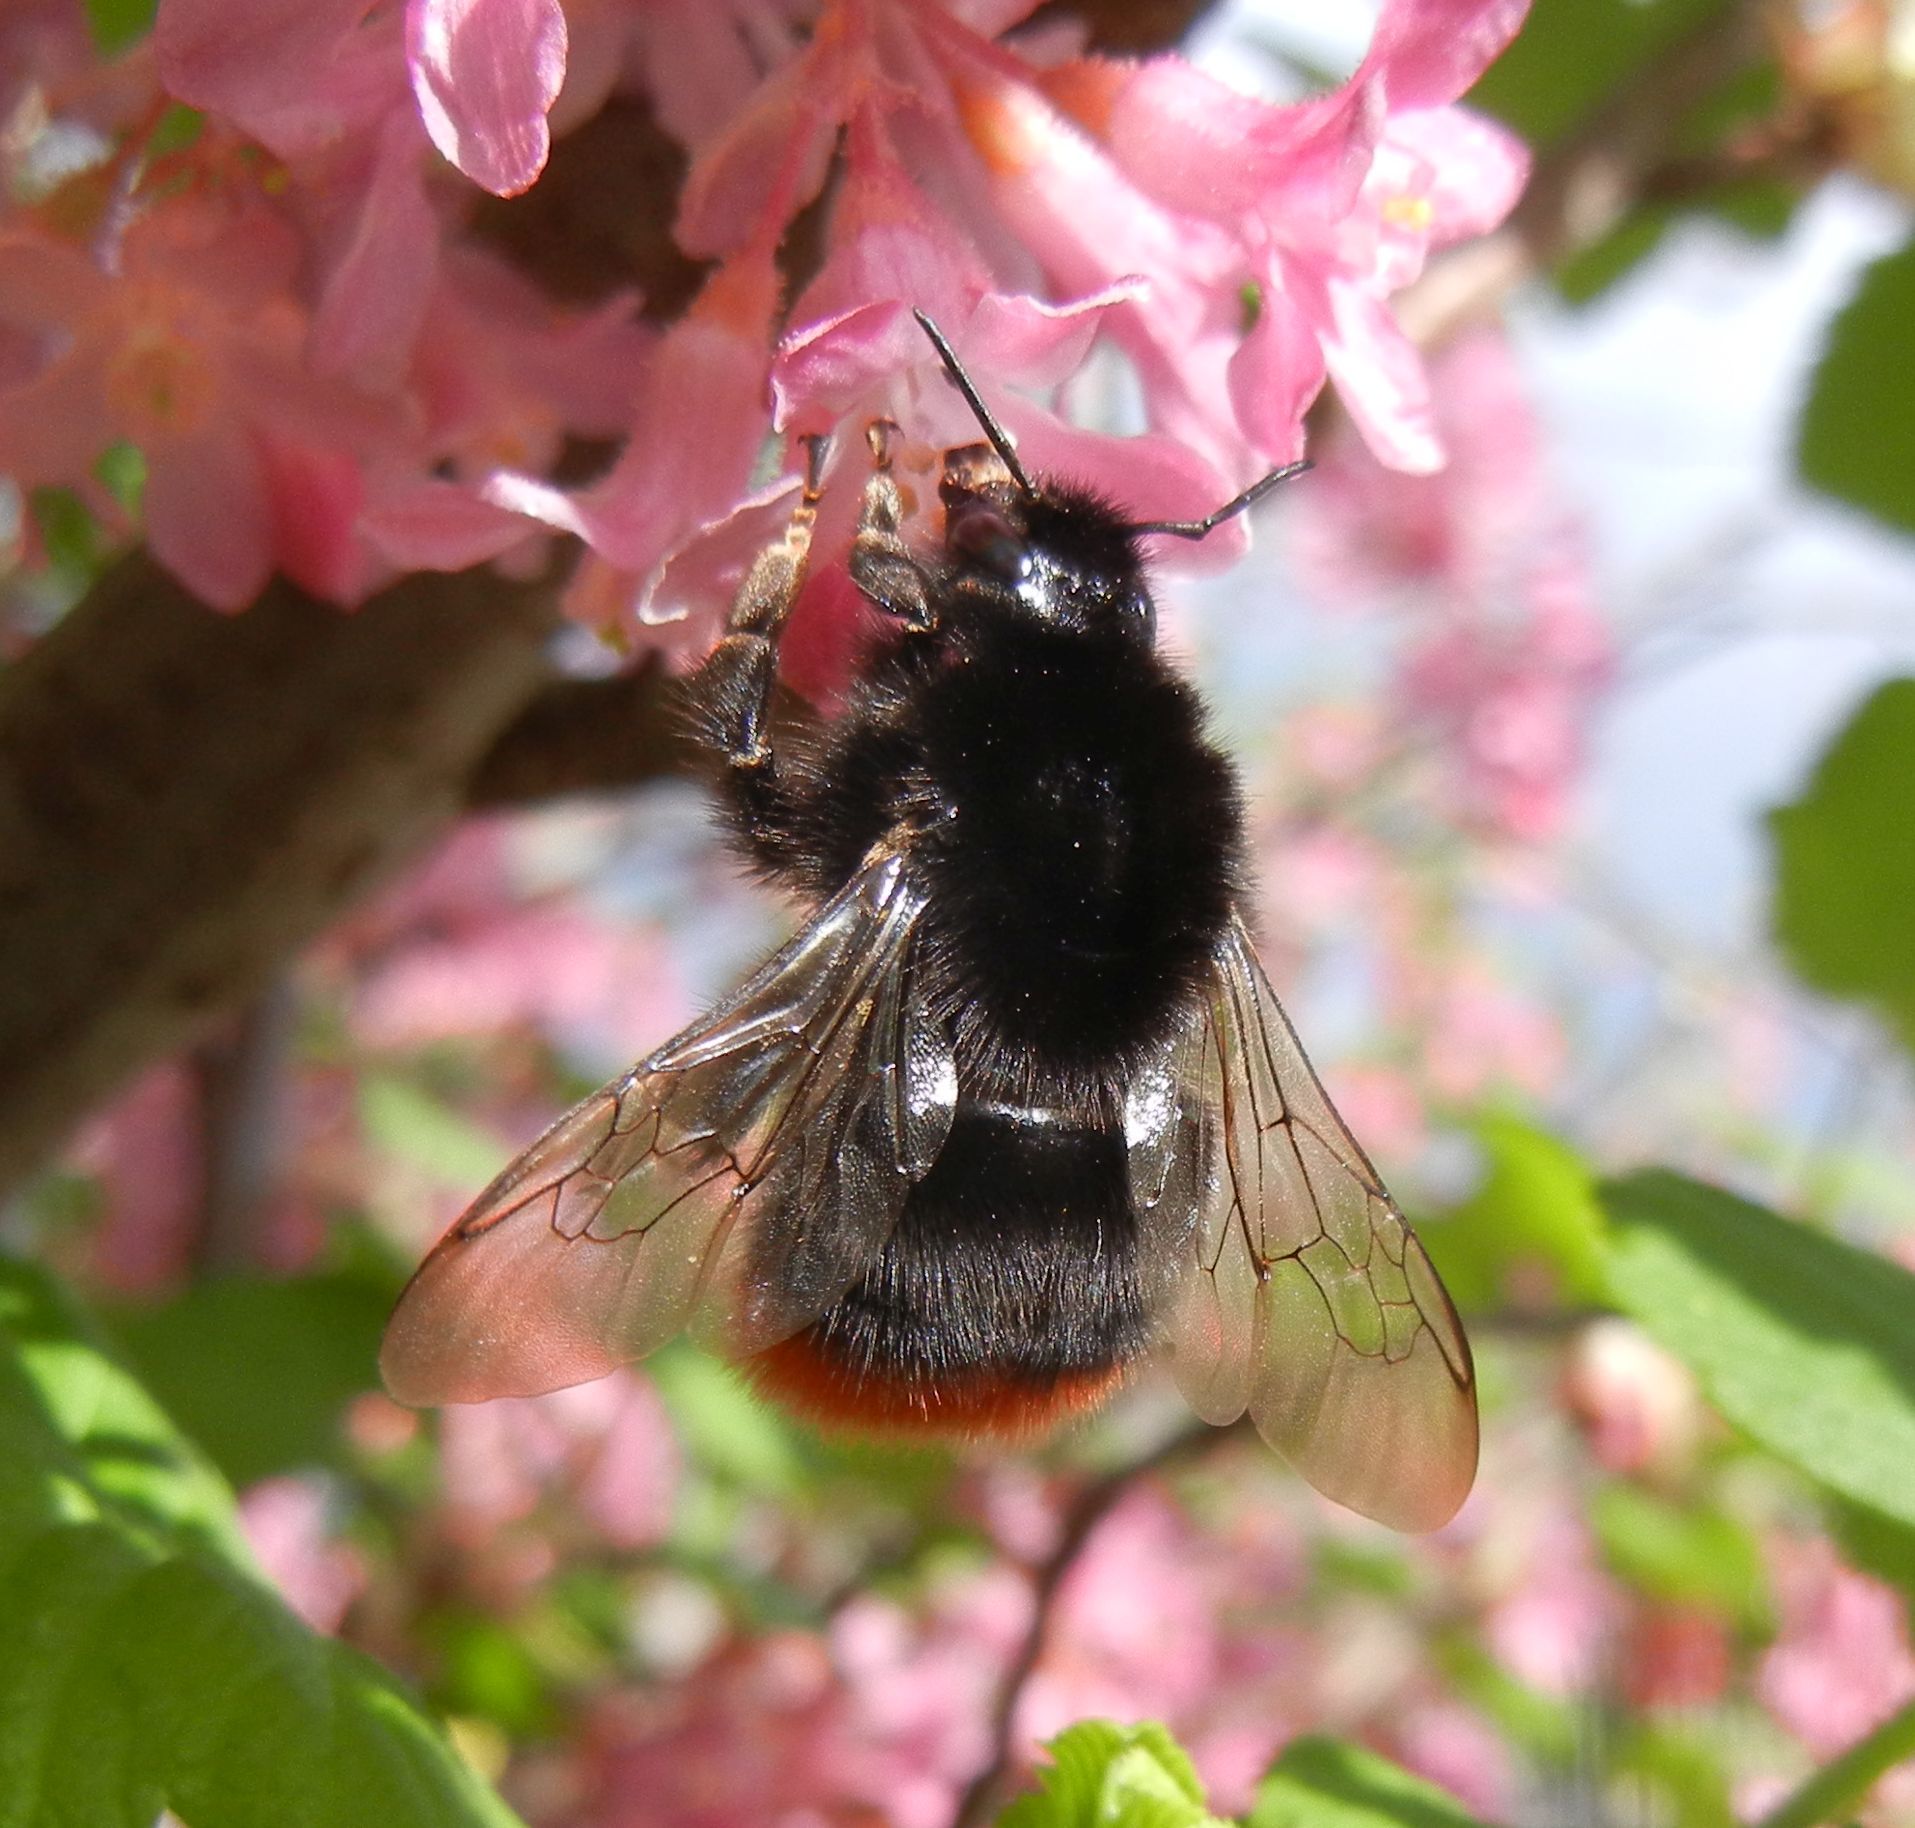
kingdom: Animalia
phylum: Arthropoda
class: Insecta
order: Hymenoptera
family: Apidae
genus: Bombus
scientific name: Bombus lapidarius
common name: Large red-tailed humble-bee
